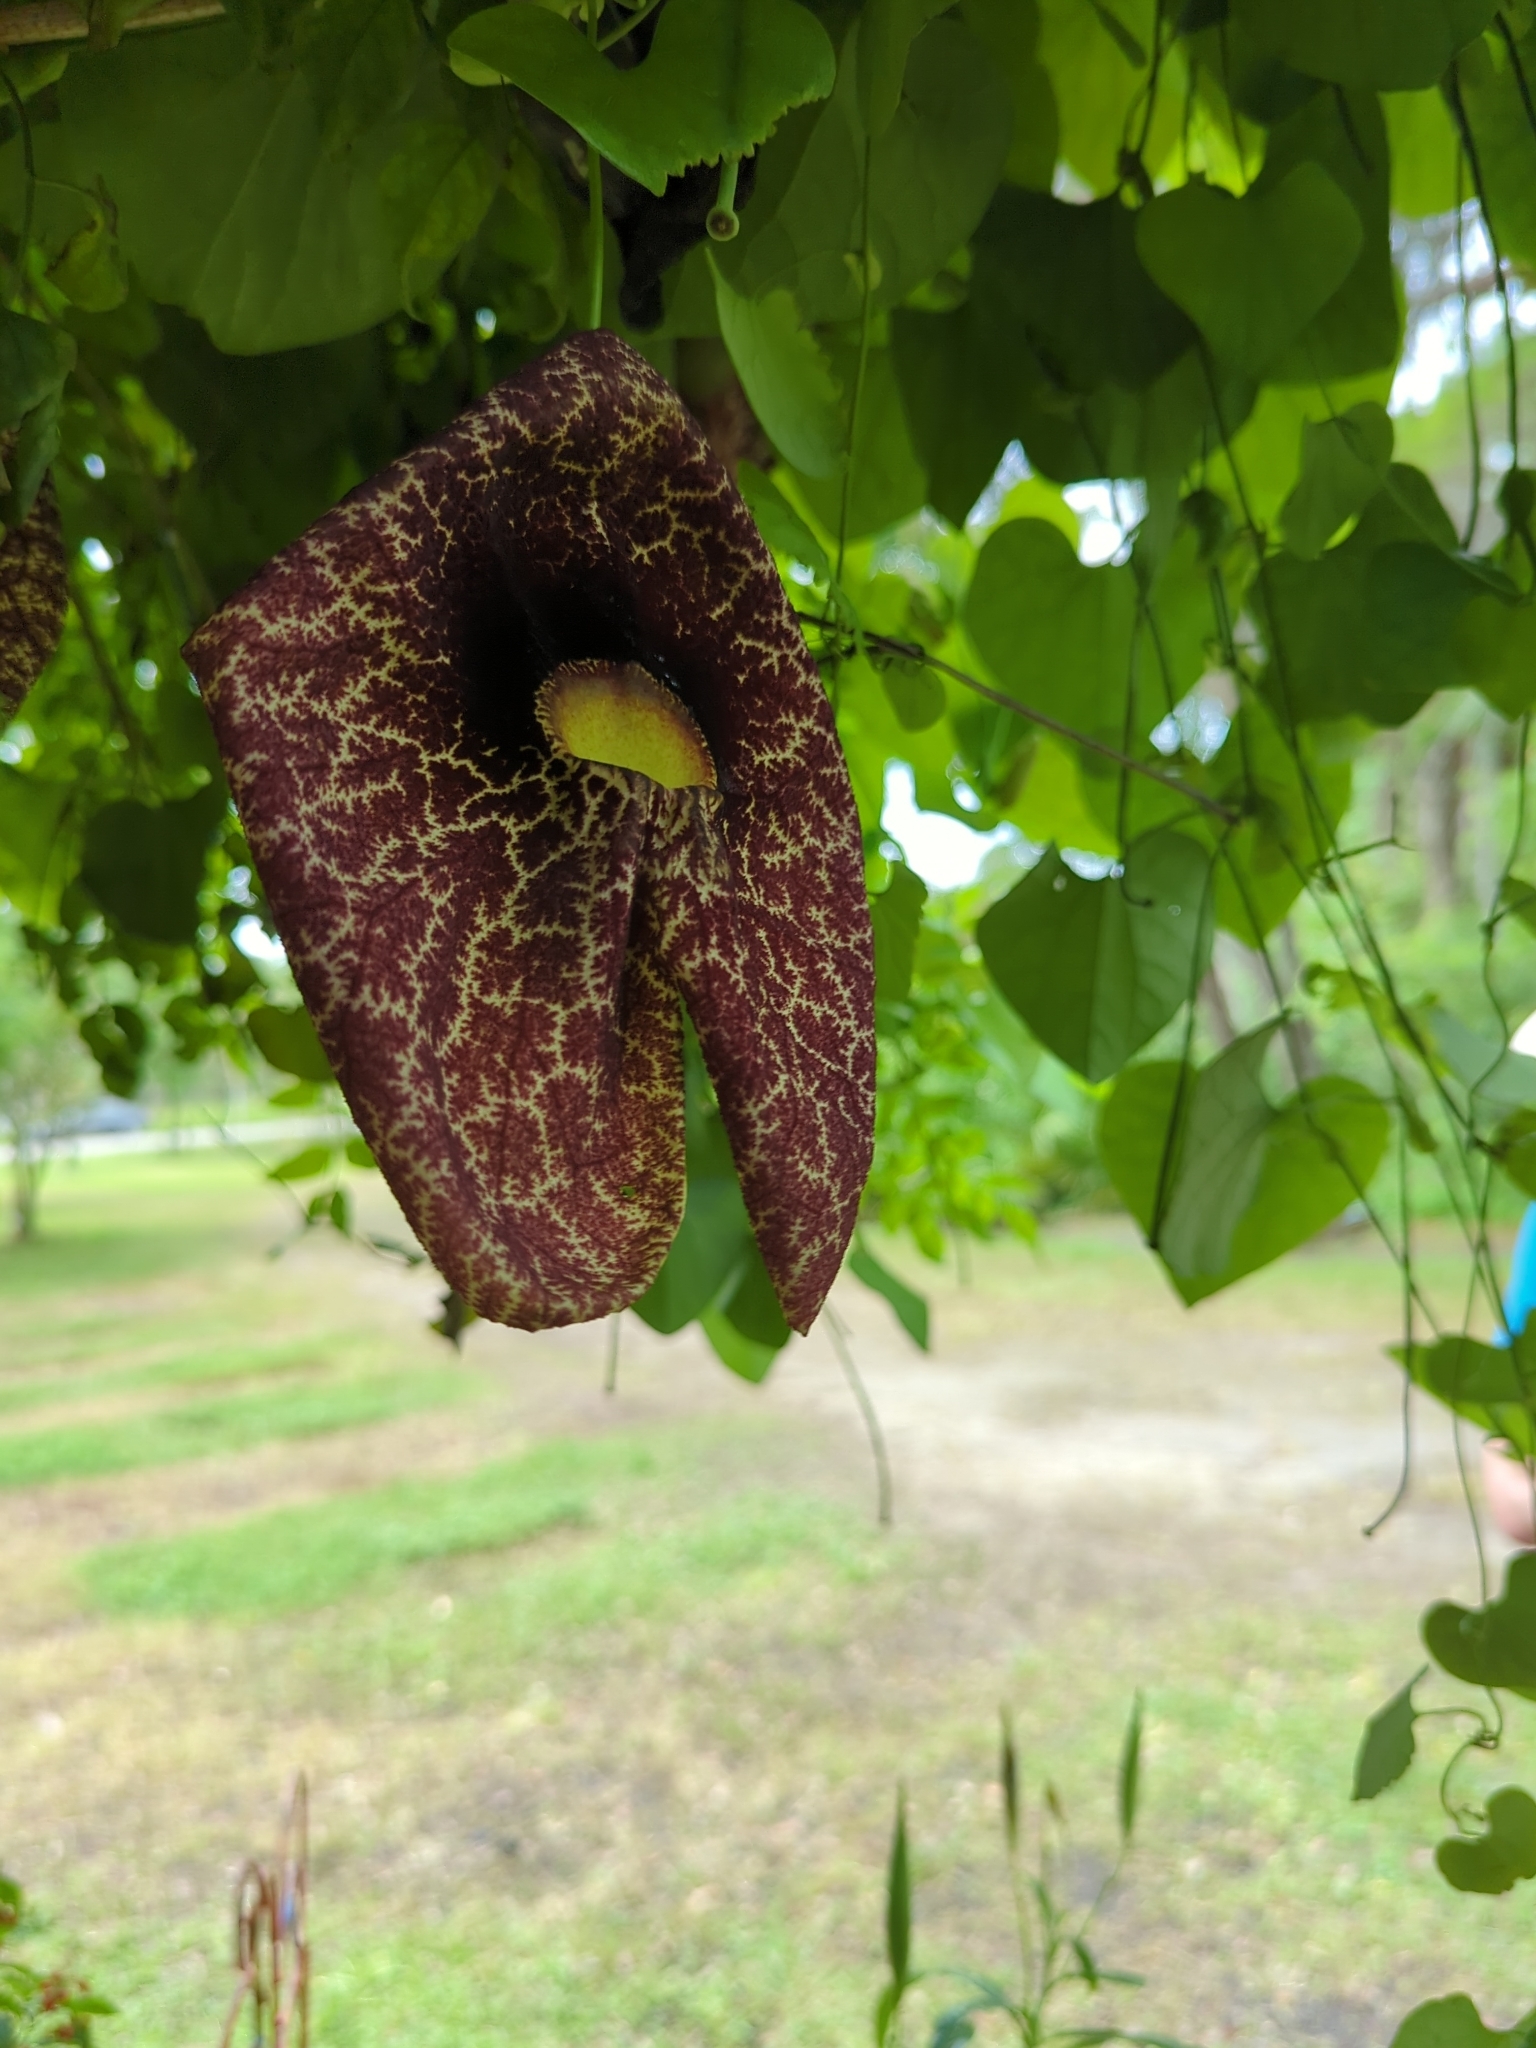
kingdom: Plantae
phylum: Tracheophyta
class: Magnoliopsida
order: Piperales
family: Aristolochiaceae
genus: Aristolochia
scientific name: Aristolochia littoralis
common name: Duck
